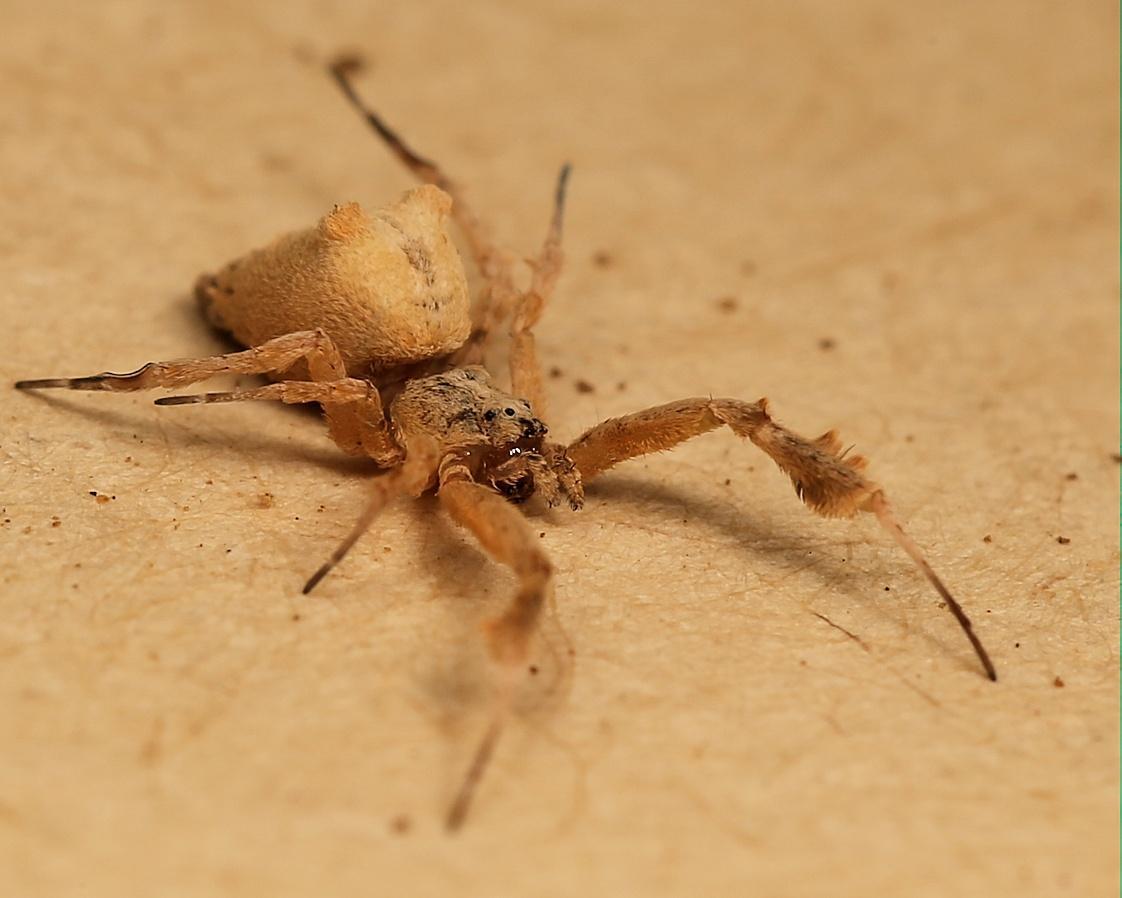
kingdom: Animalia
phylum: Arthropoda
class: Arachnida
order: Araneae
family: Uloboridae
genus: Uloborus
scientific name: Uloborus plumipes
